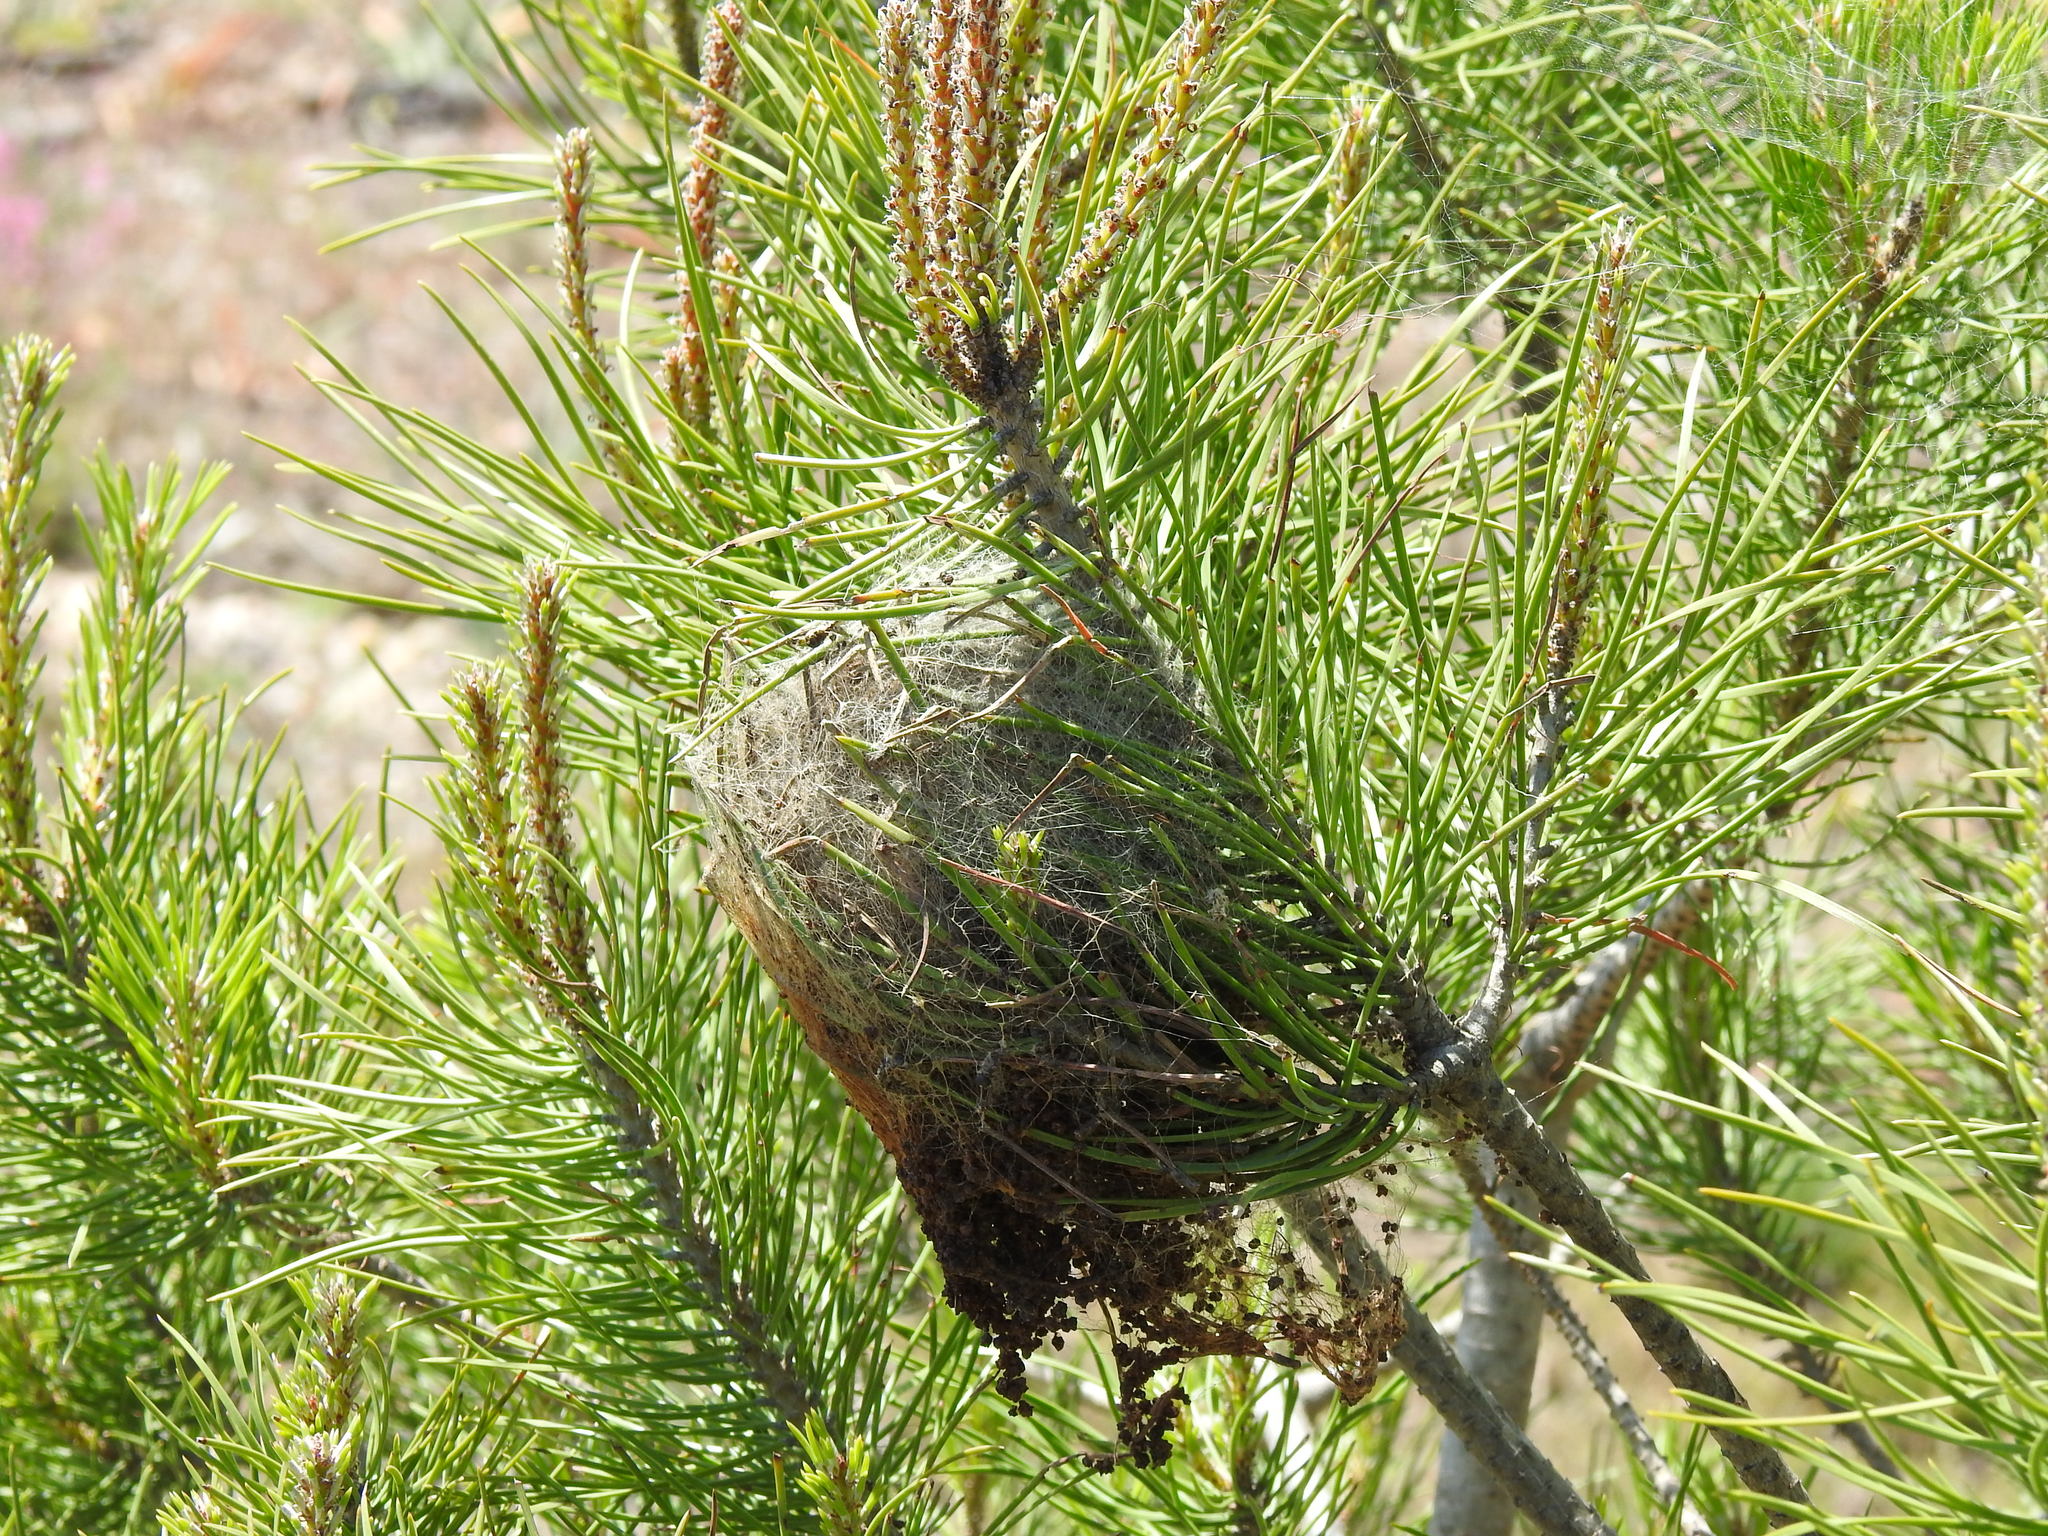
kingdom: Animalia
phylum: Arthropoda
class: Insecta
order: Lepidoptera
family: Notodontidae
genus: Thaumetopoea
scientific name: Thaumetopoea pityocampa
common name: Pine processionary
